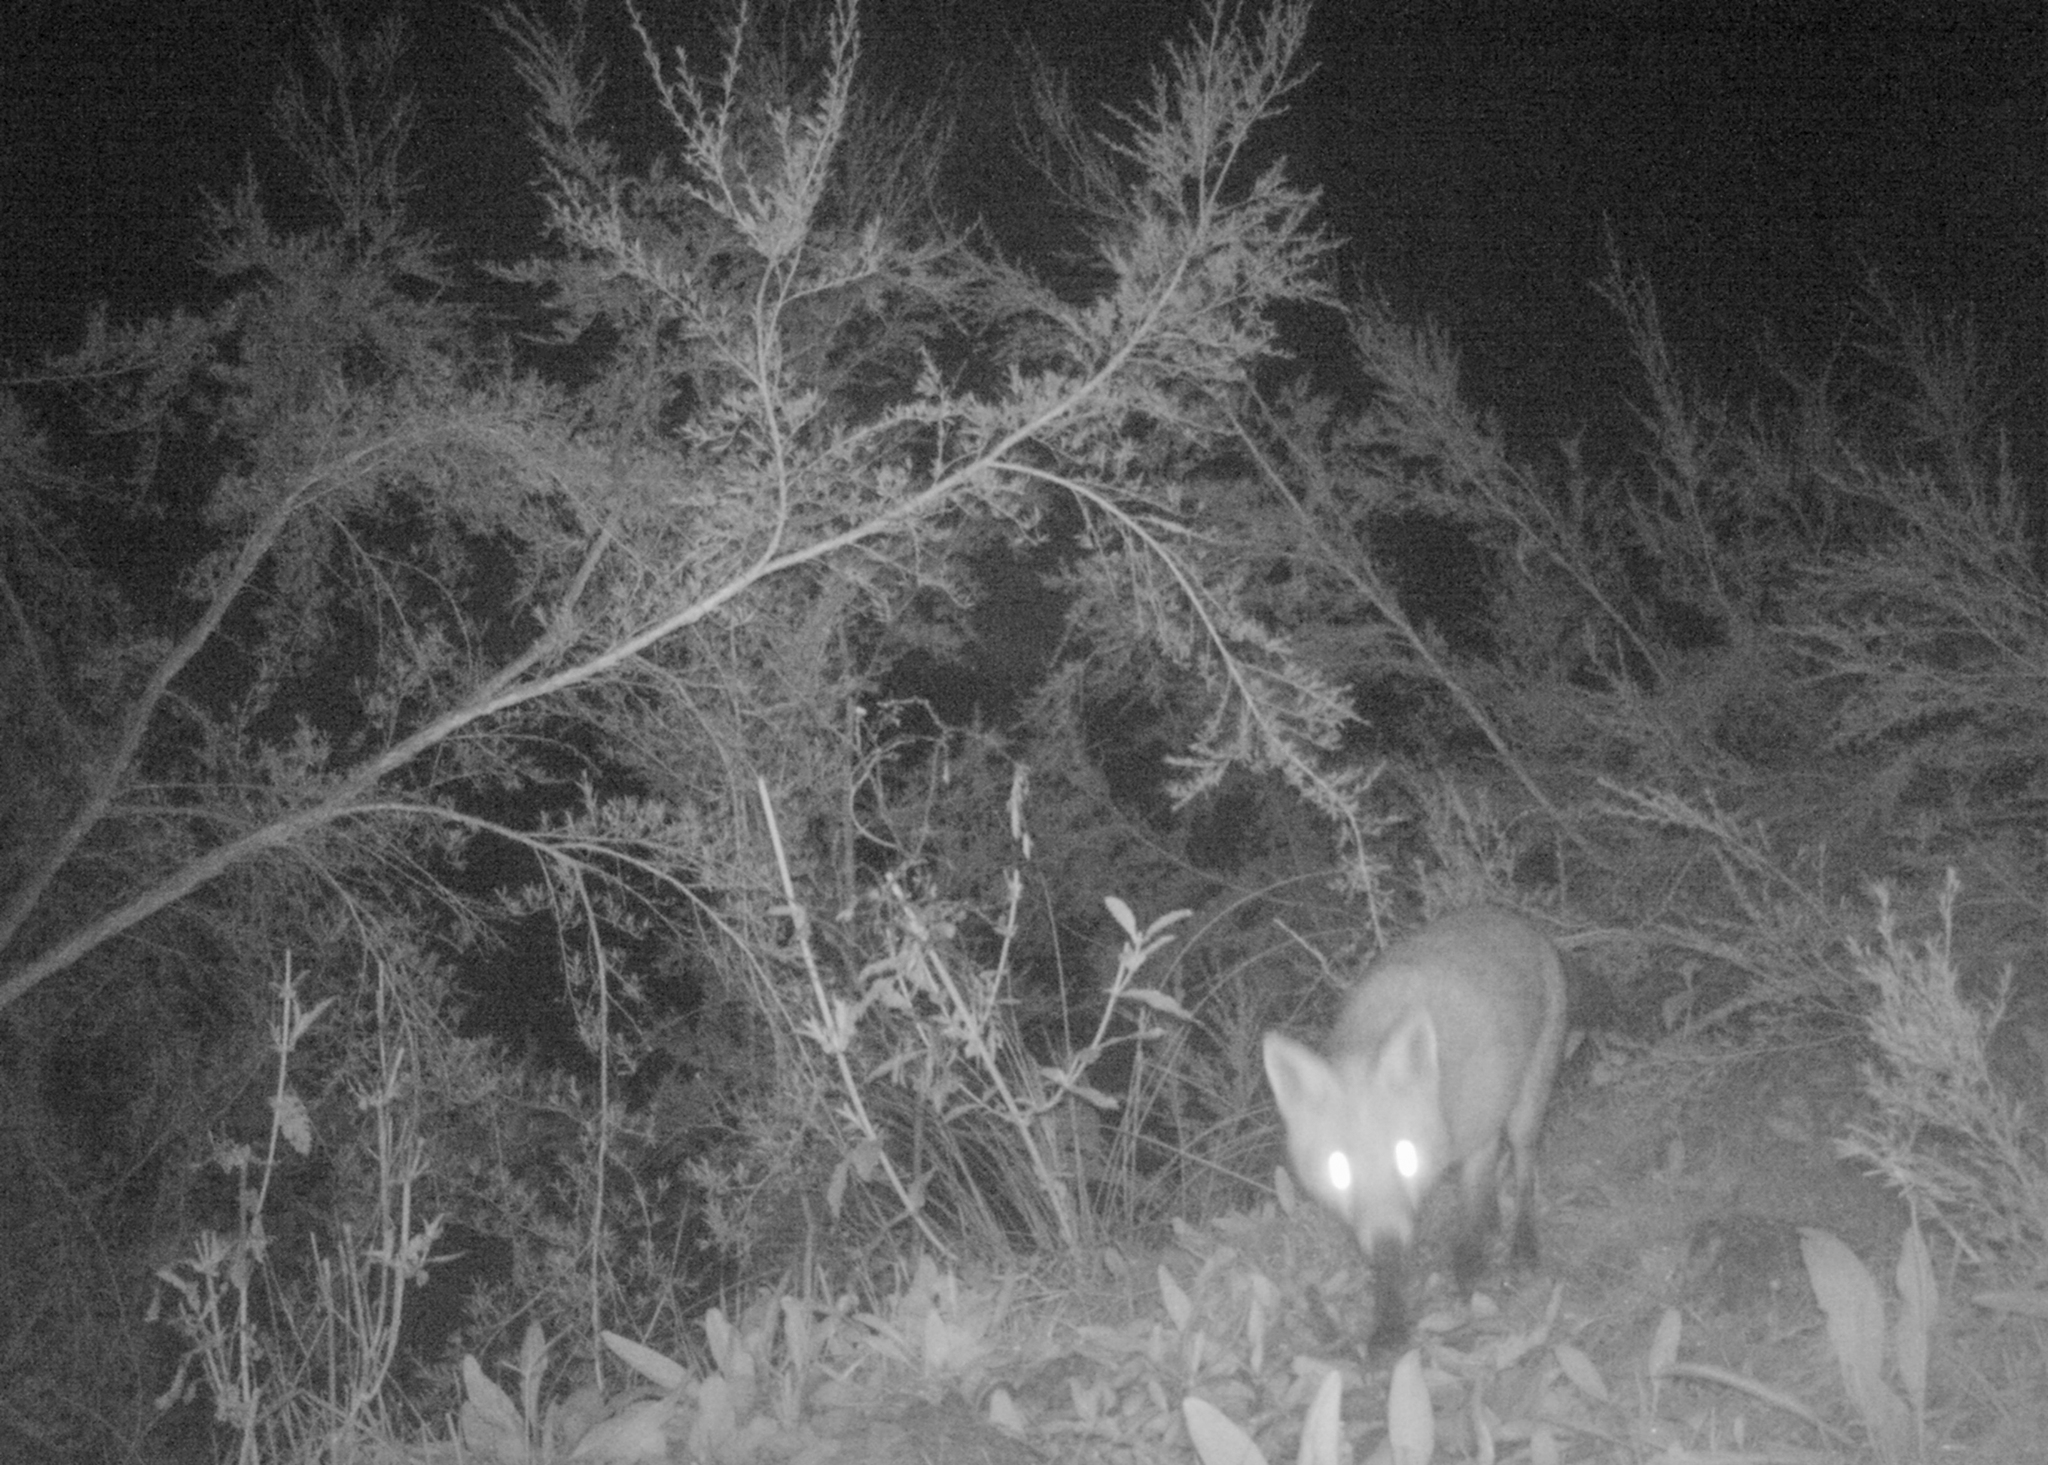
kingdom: Animalia
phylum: Chordata
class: Mammalia
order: Carnivora
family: Canidae
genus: Vulpes
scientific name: Vulpes vulpes
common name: Red fox
